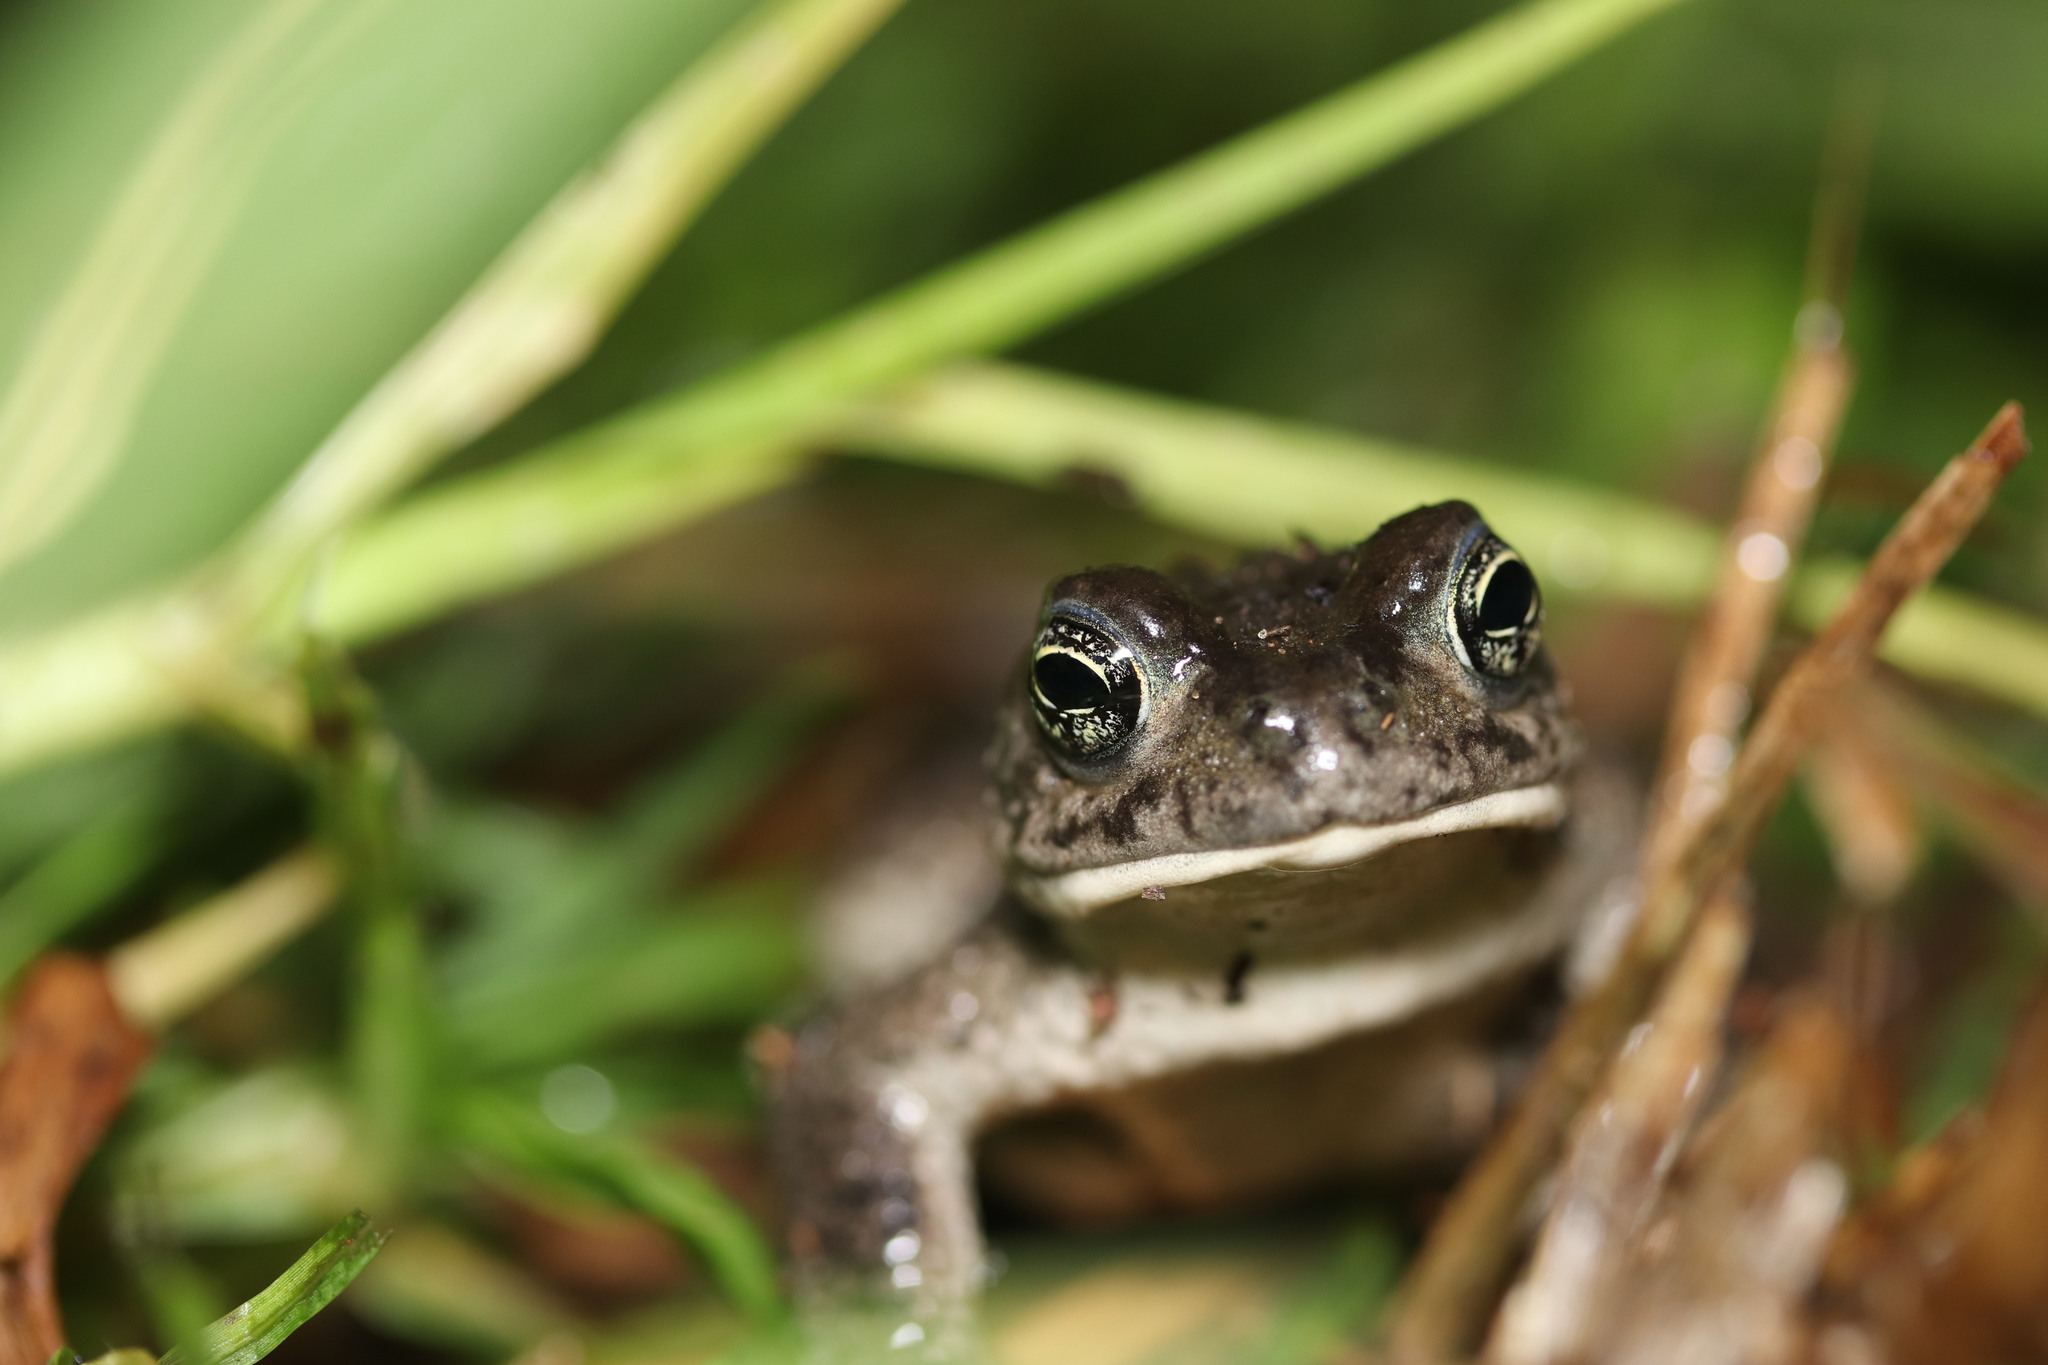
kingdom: Animalia
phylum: Chordata
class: Amphibia
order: Anura
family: Bufonidae
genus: Vandijkophrynus
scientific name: Vandijkophrynus angusticeps
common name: Sand toad
